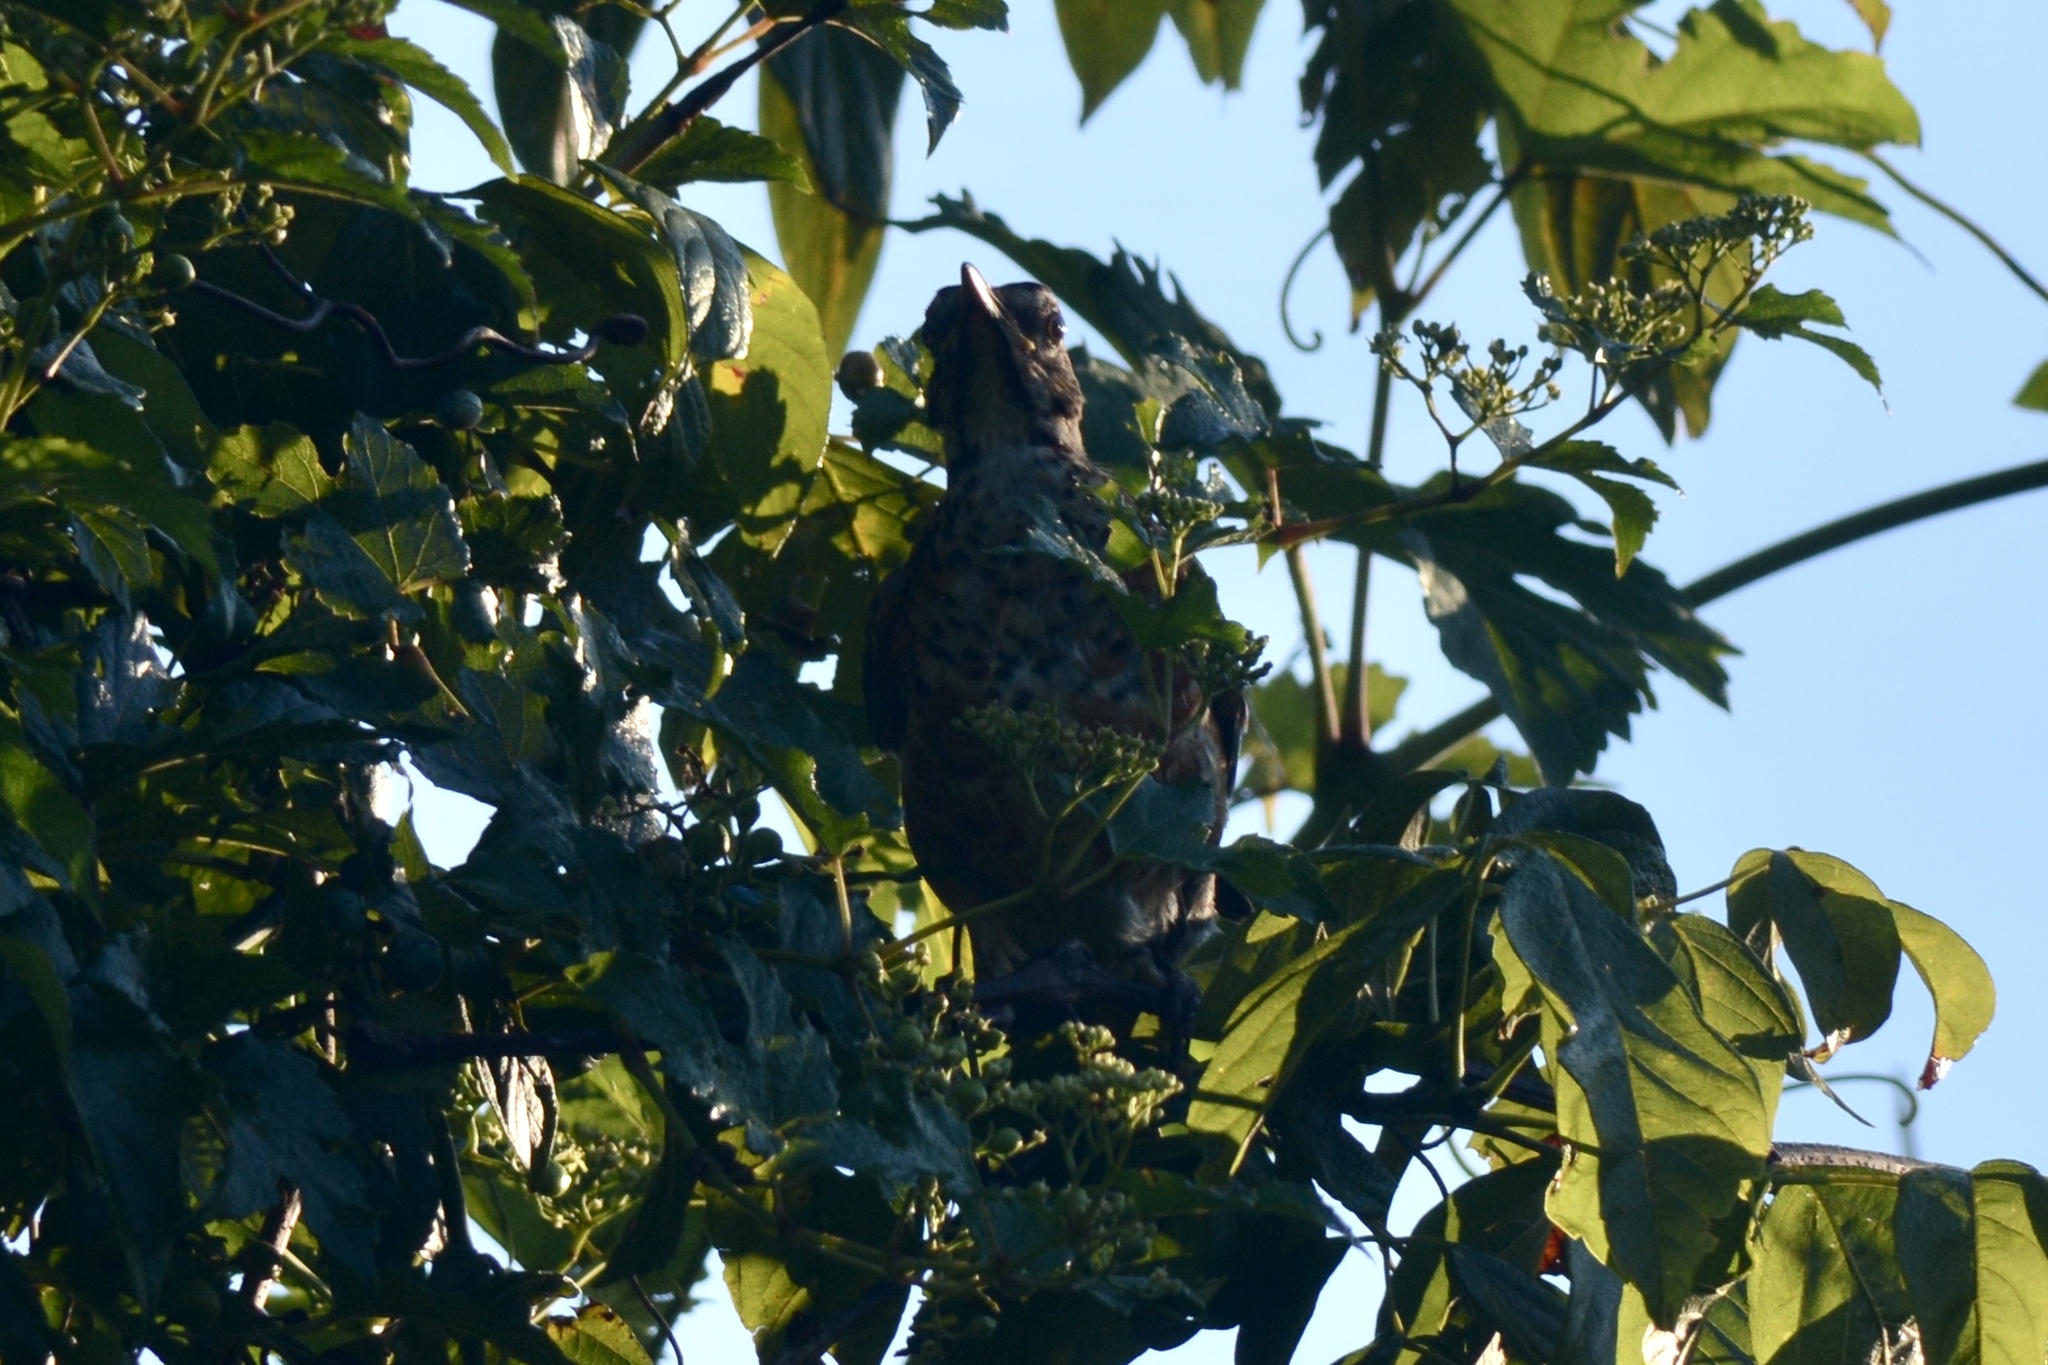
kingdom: Animalia
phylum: Chordata
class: Aves
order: Passeriformes
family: Turdidae
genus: Turdus
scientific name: Turdus migratorius
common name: American robin
